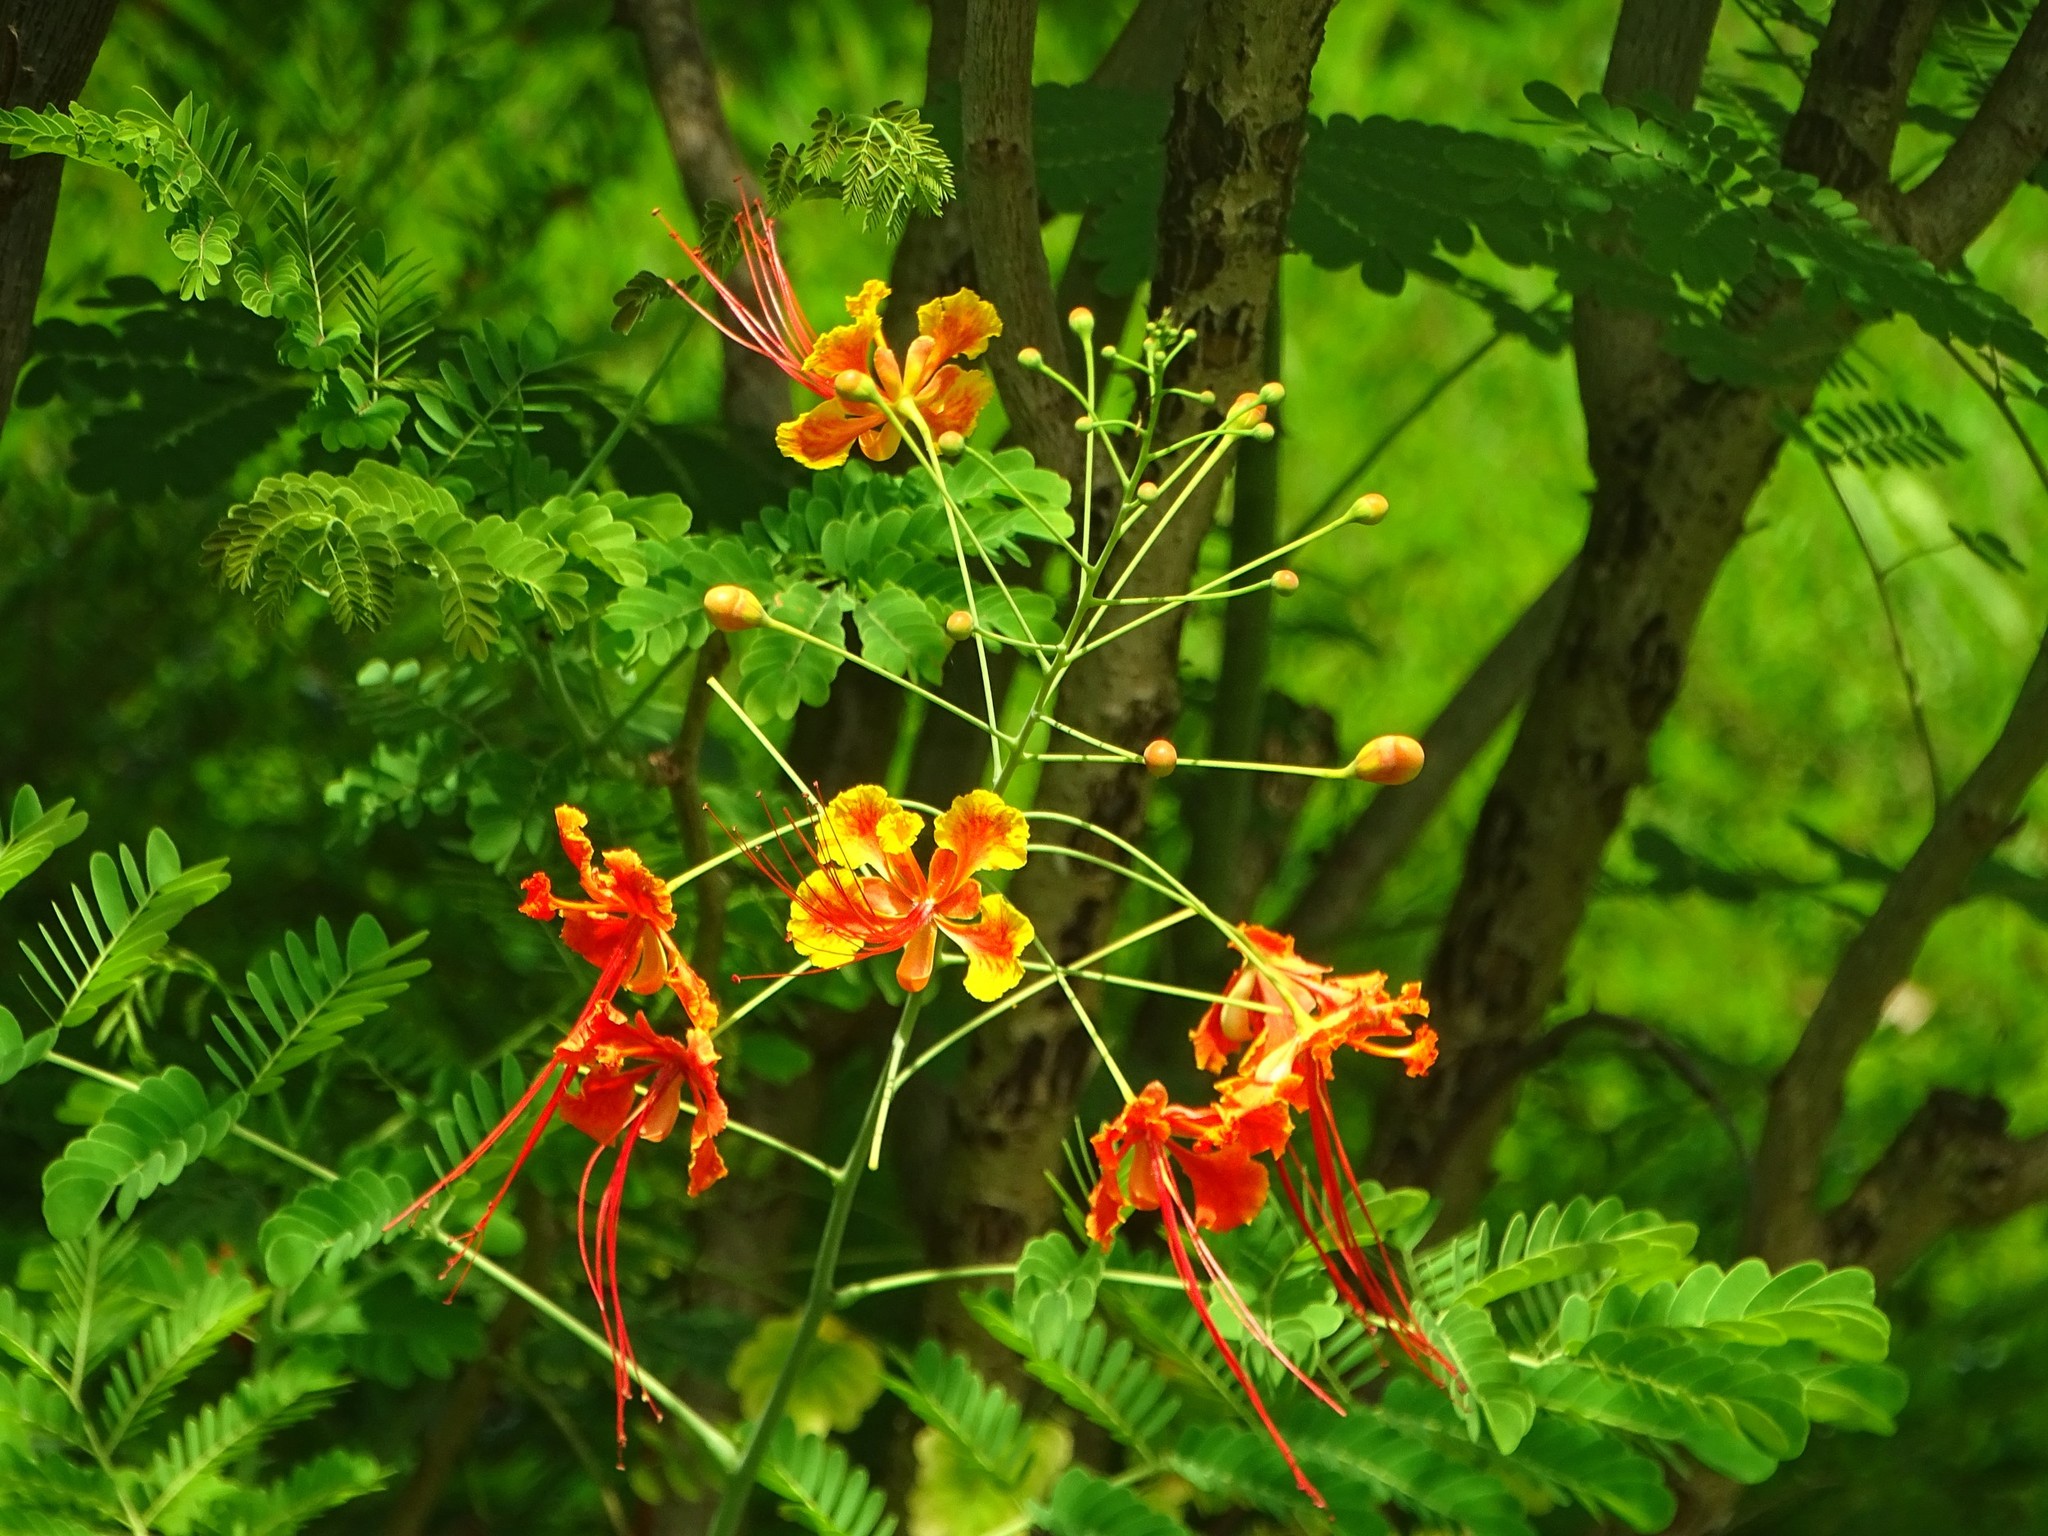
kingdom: Plantae
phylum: Tracheophyta
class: Magnoliopsida
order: Fabales
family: Fabaceae
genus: Caesalpinia
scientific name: Caesalpinia pulcherrima
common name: Pride-of-barbados
